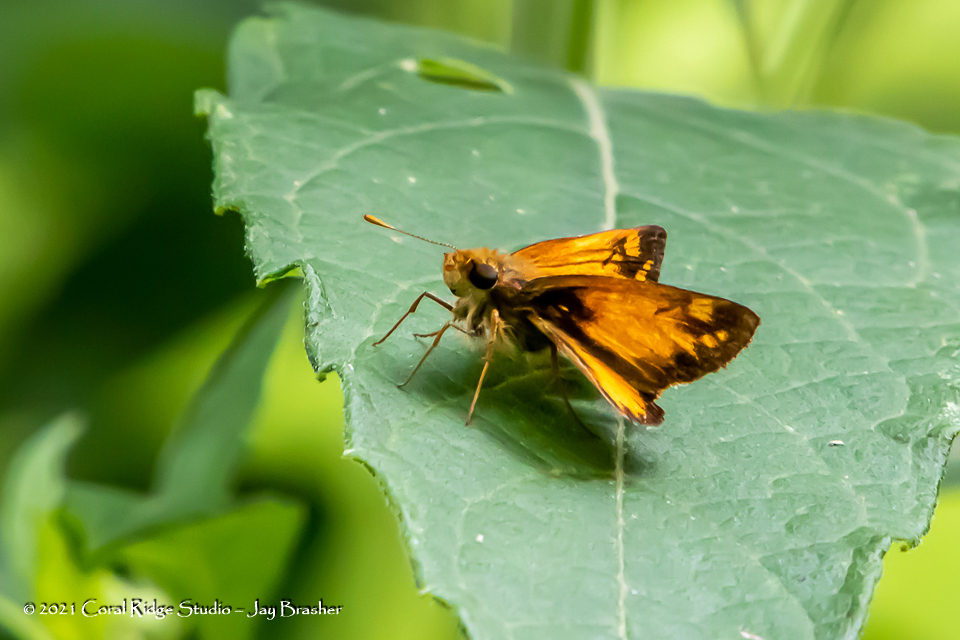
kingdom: Animalia
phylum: Arthropoda
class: Insecta
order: Lepidoptera
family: Hesperiidae
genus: Lon
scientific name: Lon zabulon
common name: Zabulon skipper
